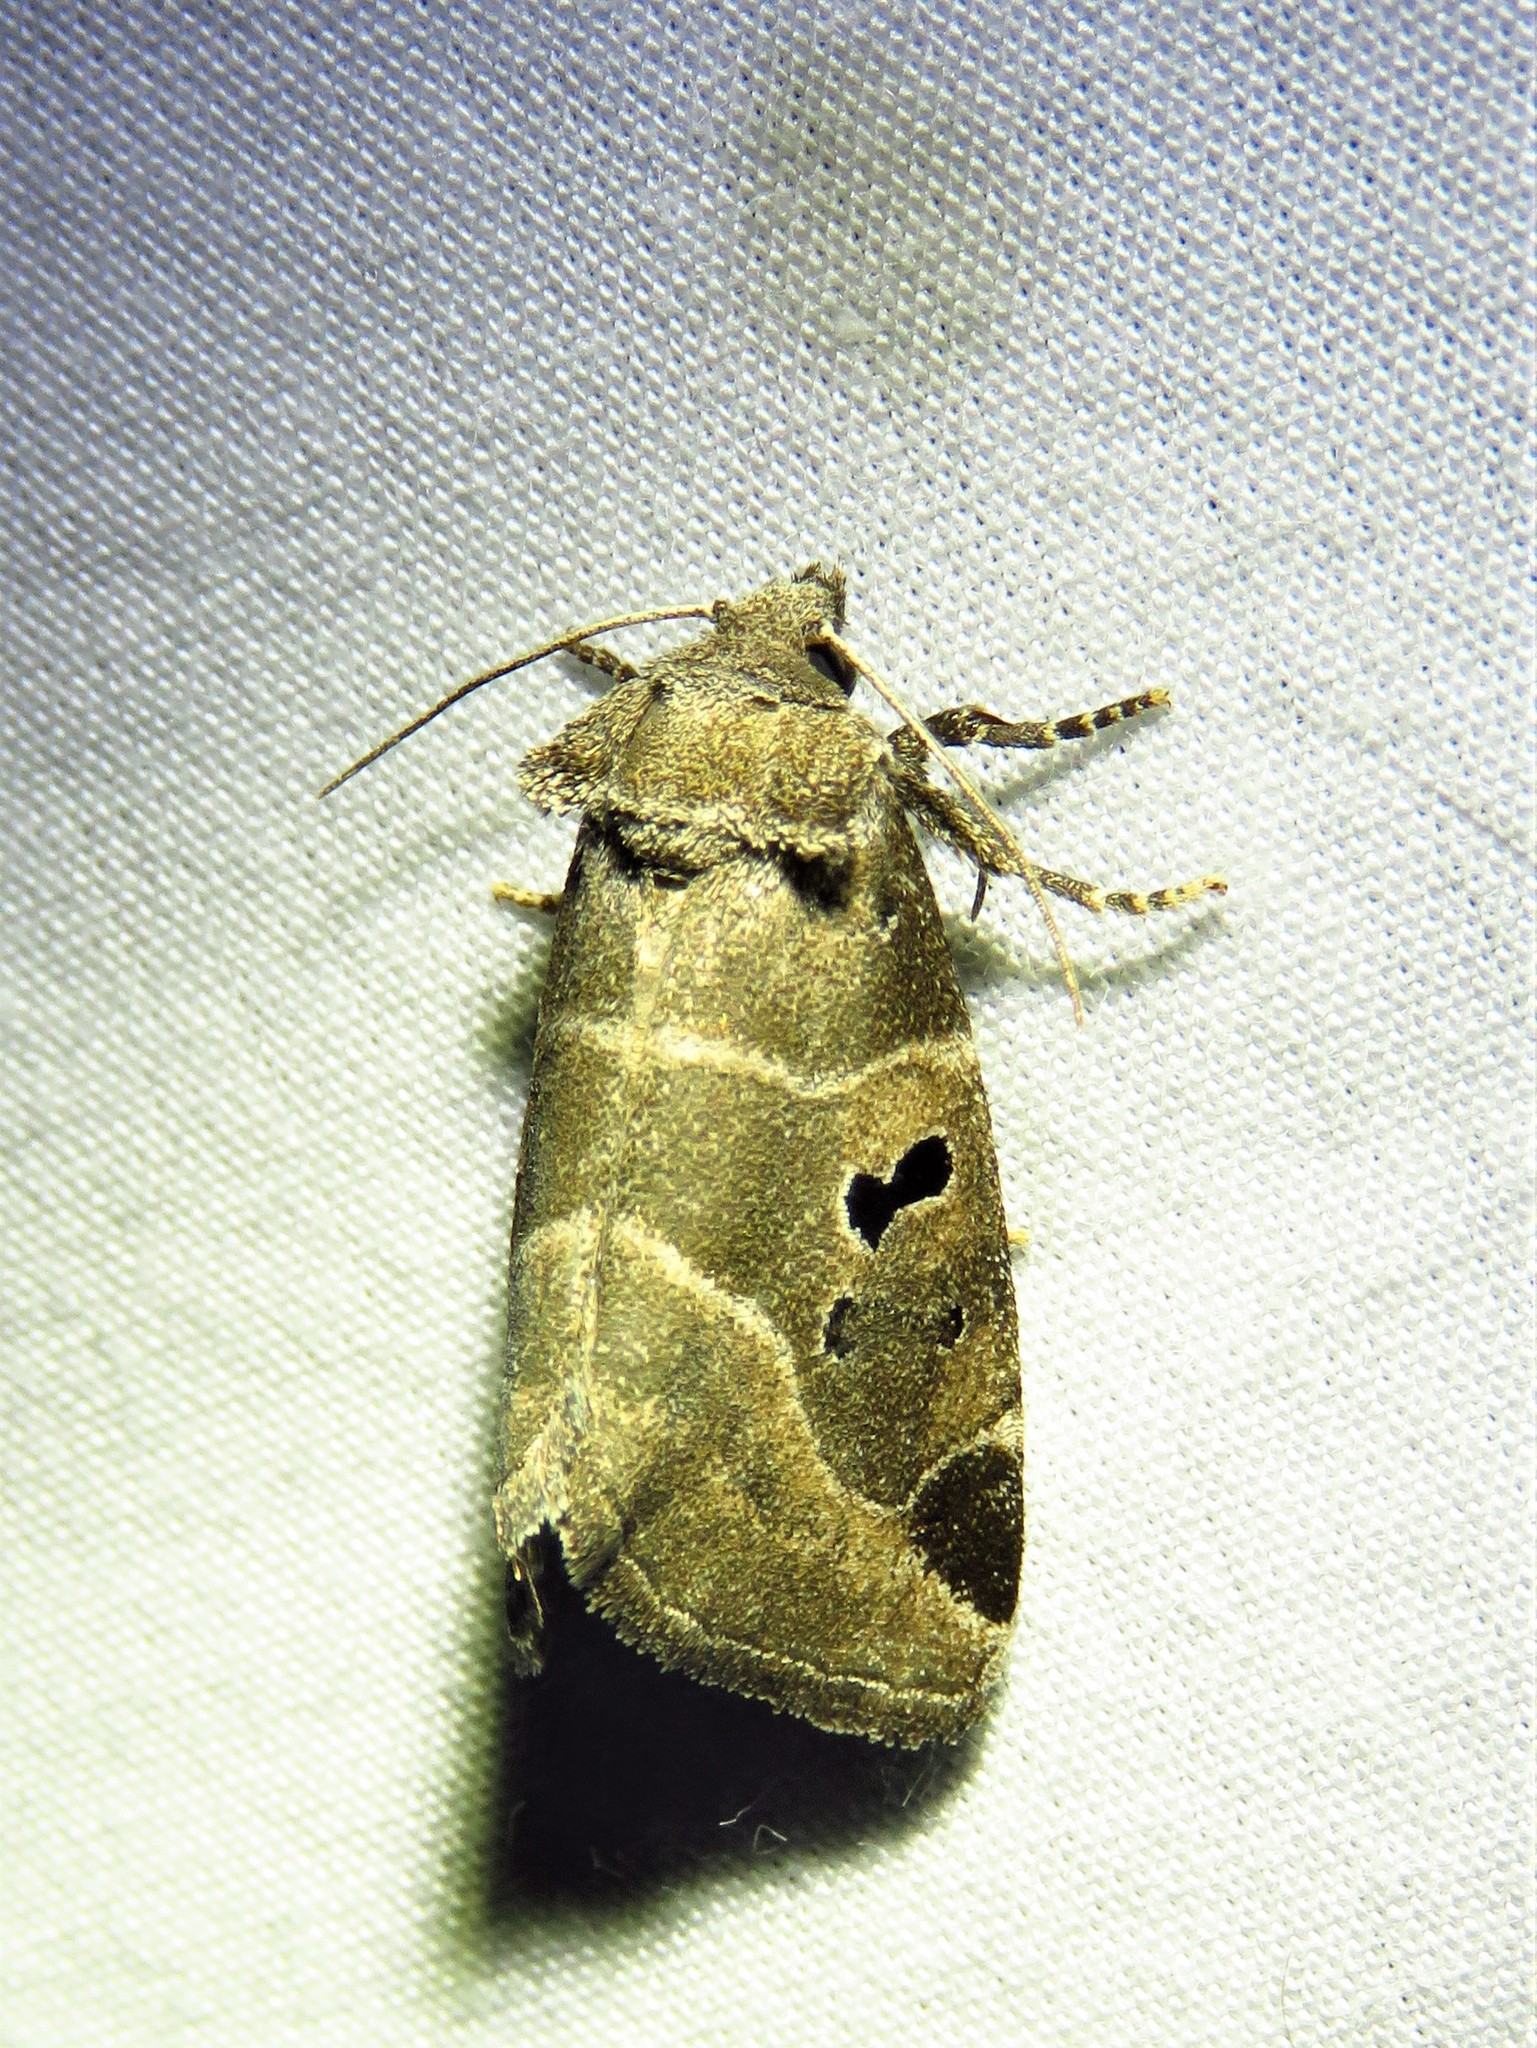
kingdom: Animalia
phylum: Arthropoda
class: Insecta
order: Lepidoptera
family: Noctuidae
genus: Plagiomimicus
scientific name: Plagiomimicus pityochromus
